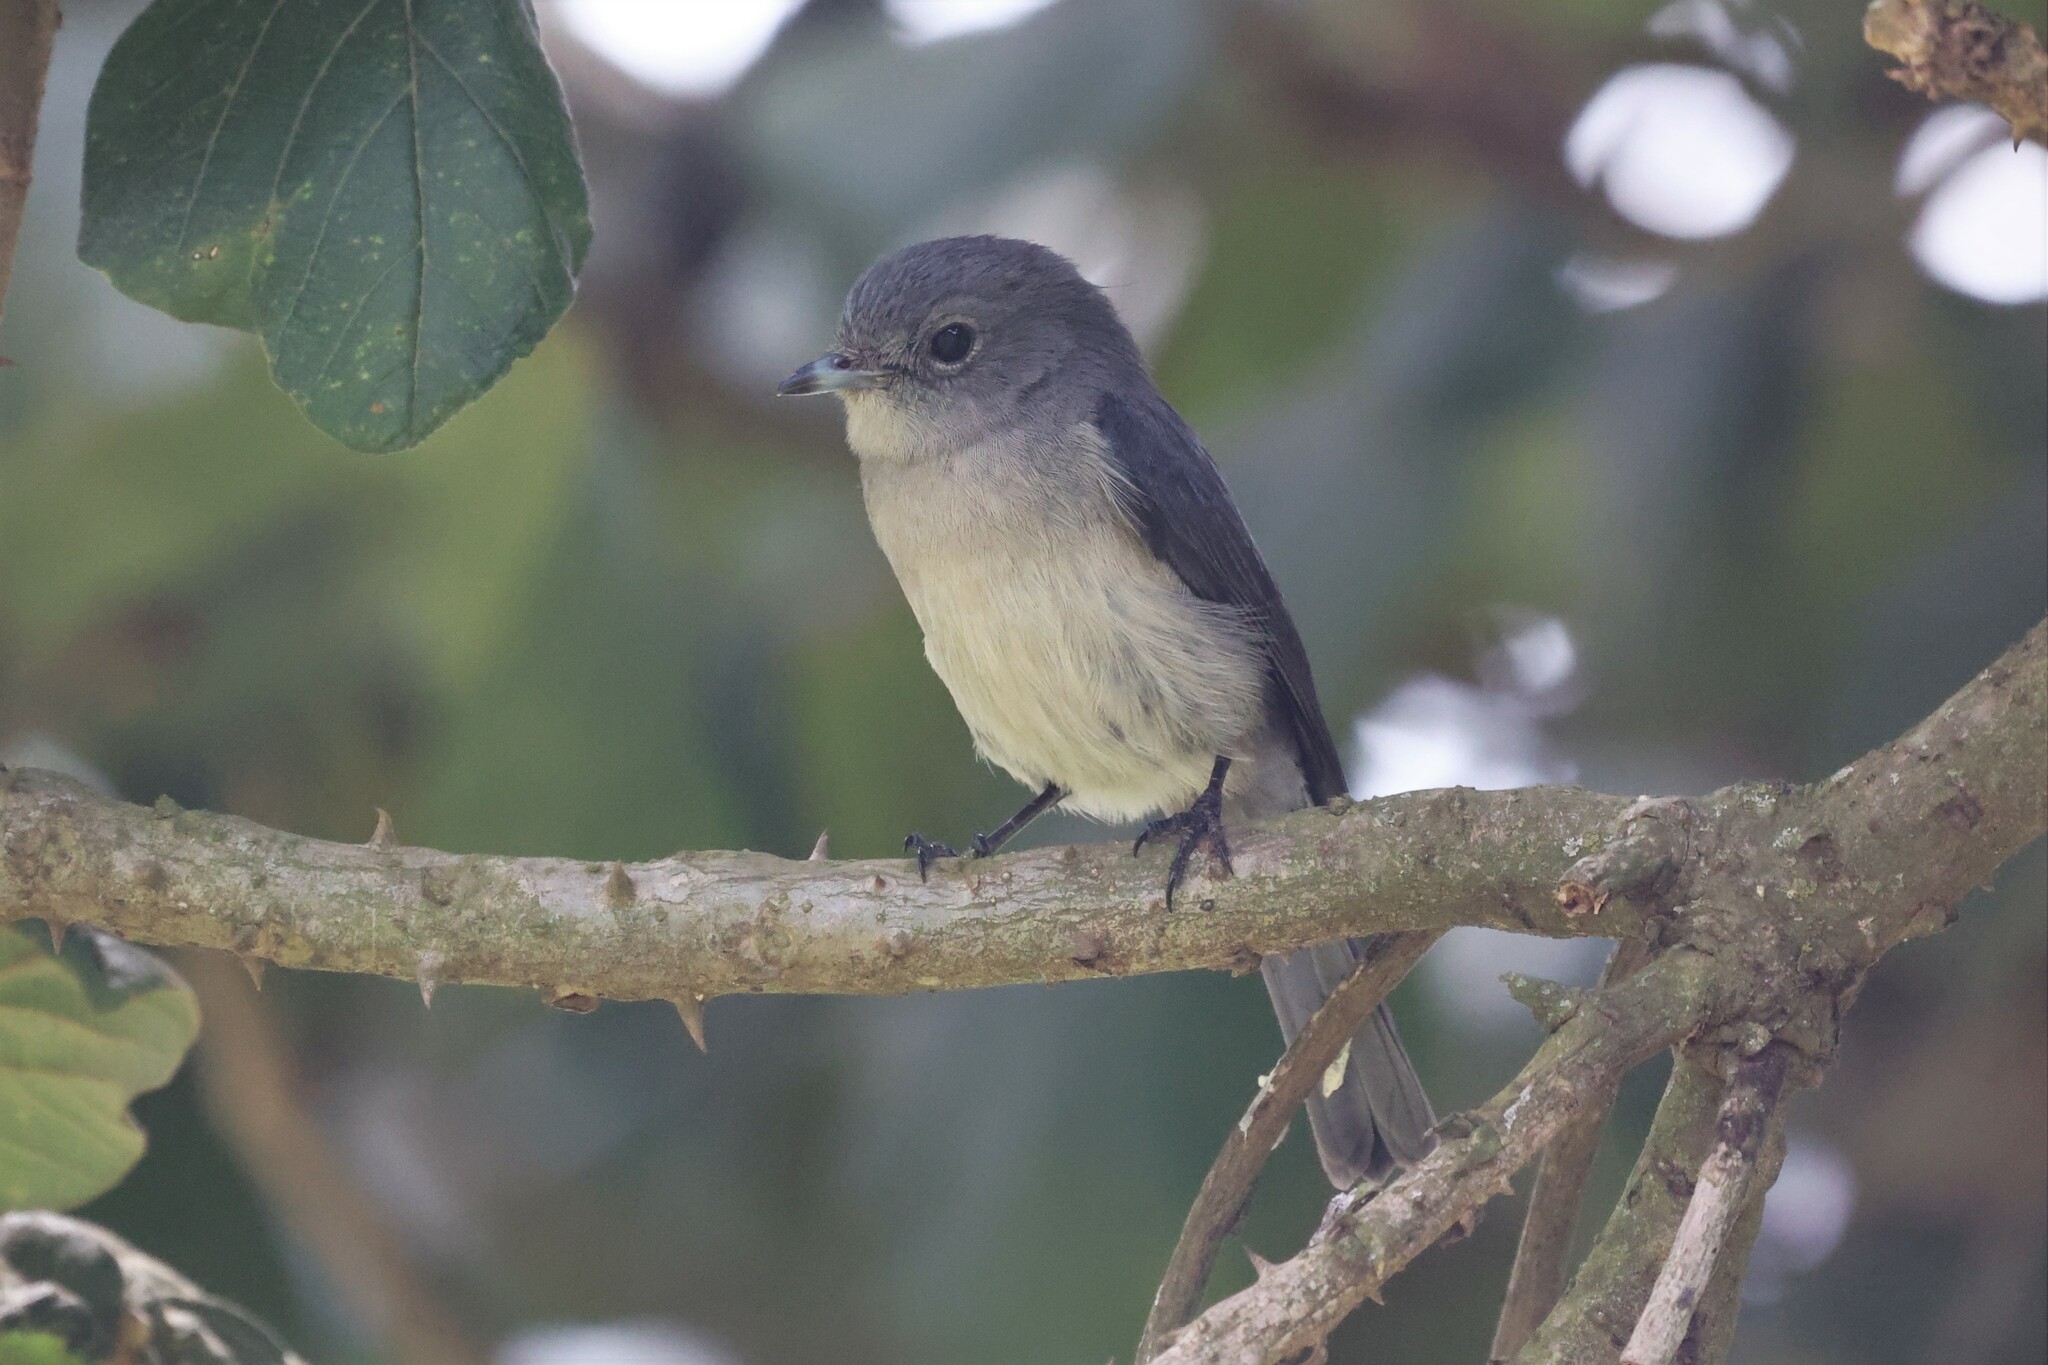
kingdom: Animalia
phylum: Chordata
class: Aves
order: Passeriformes
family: Muscicapidae
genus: Dioptrornis
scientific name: Dioptrornis fischeri
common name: White-eyed slaty flycatcher
